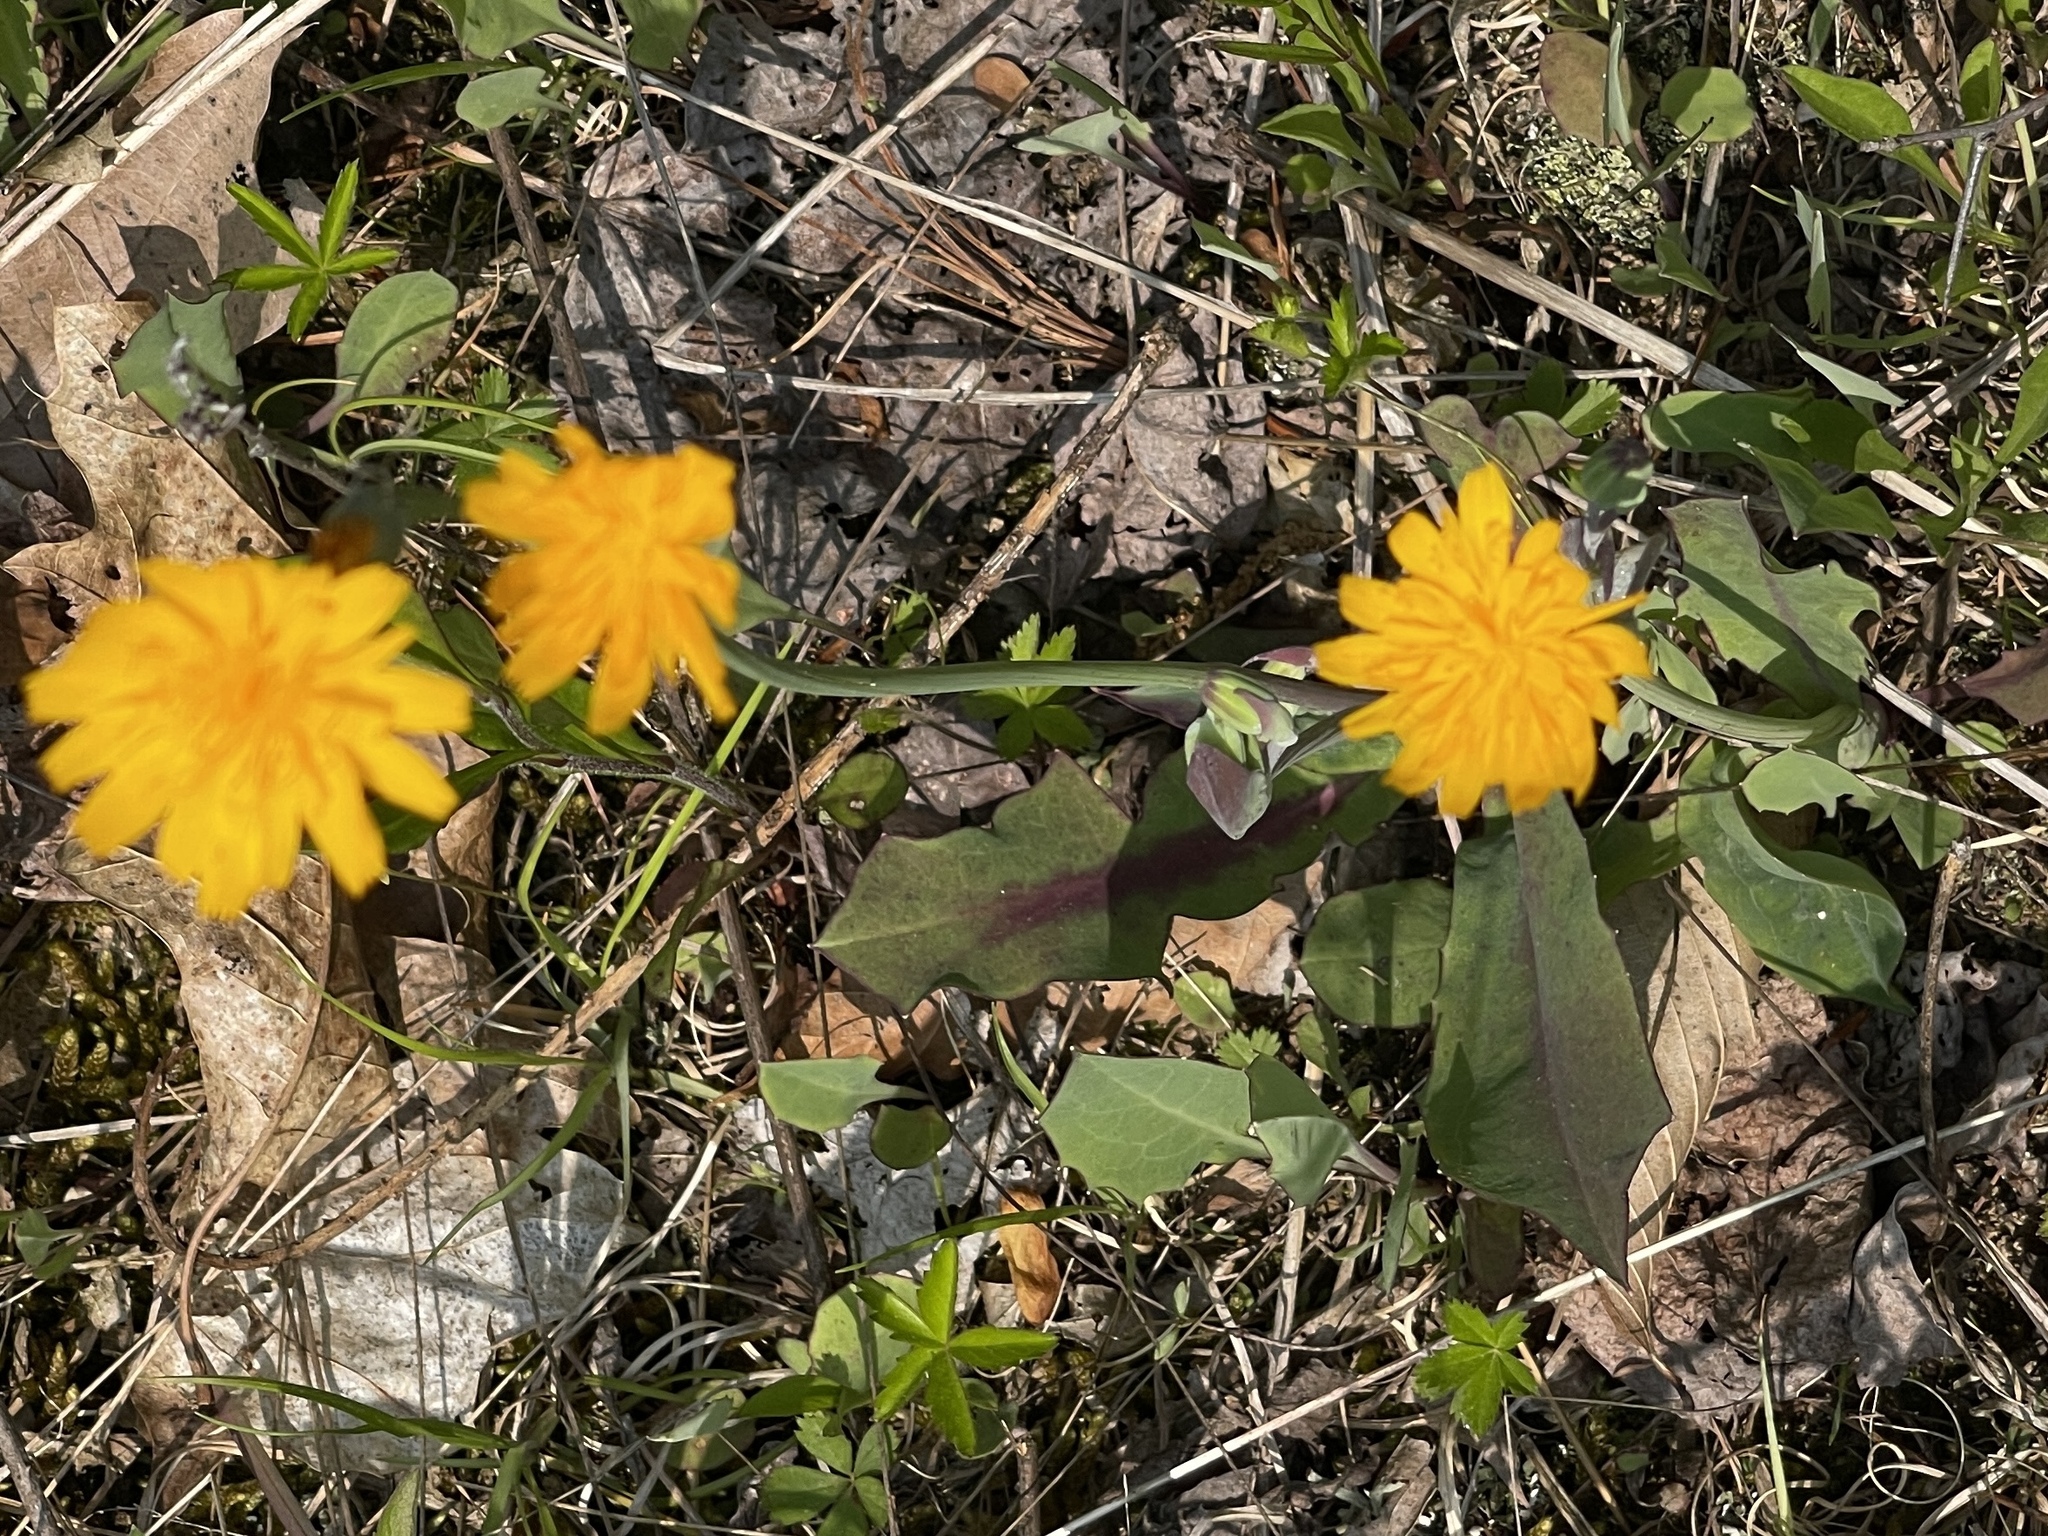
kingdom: Plantae
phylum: Tracheophyta
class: Magnoliopsida
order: Asterales
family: Asteraceae
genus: Krigia
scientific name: Krigia biflora
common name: Orange dwarf-dandelion
